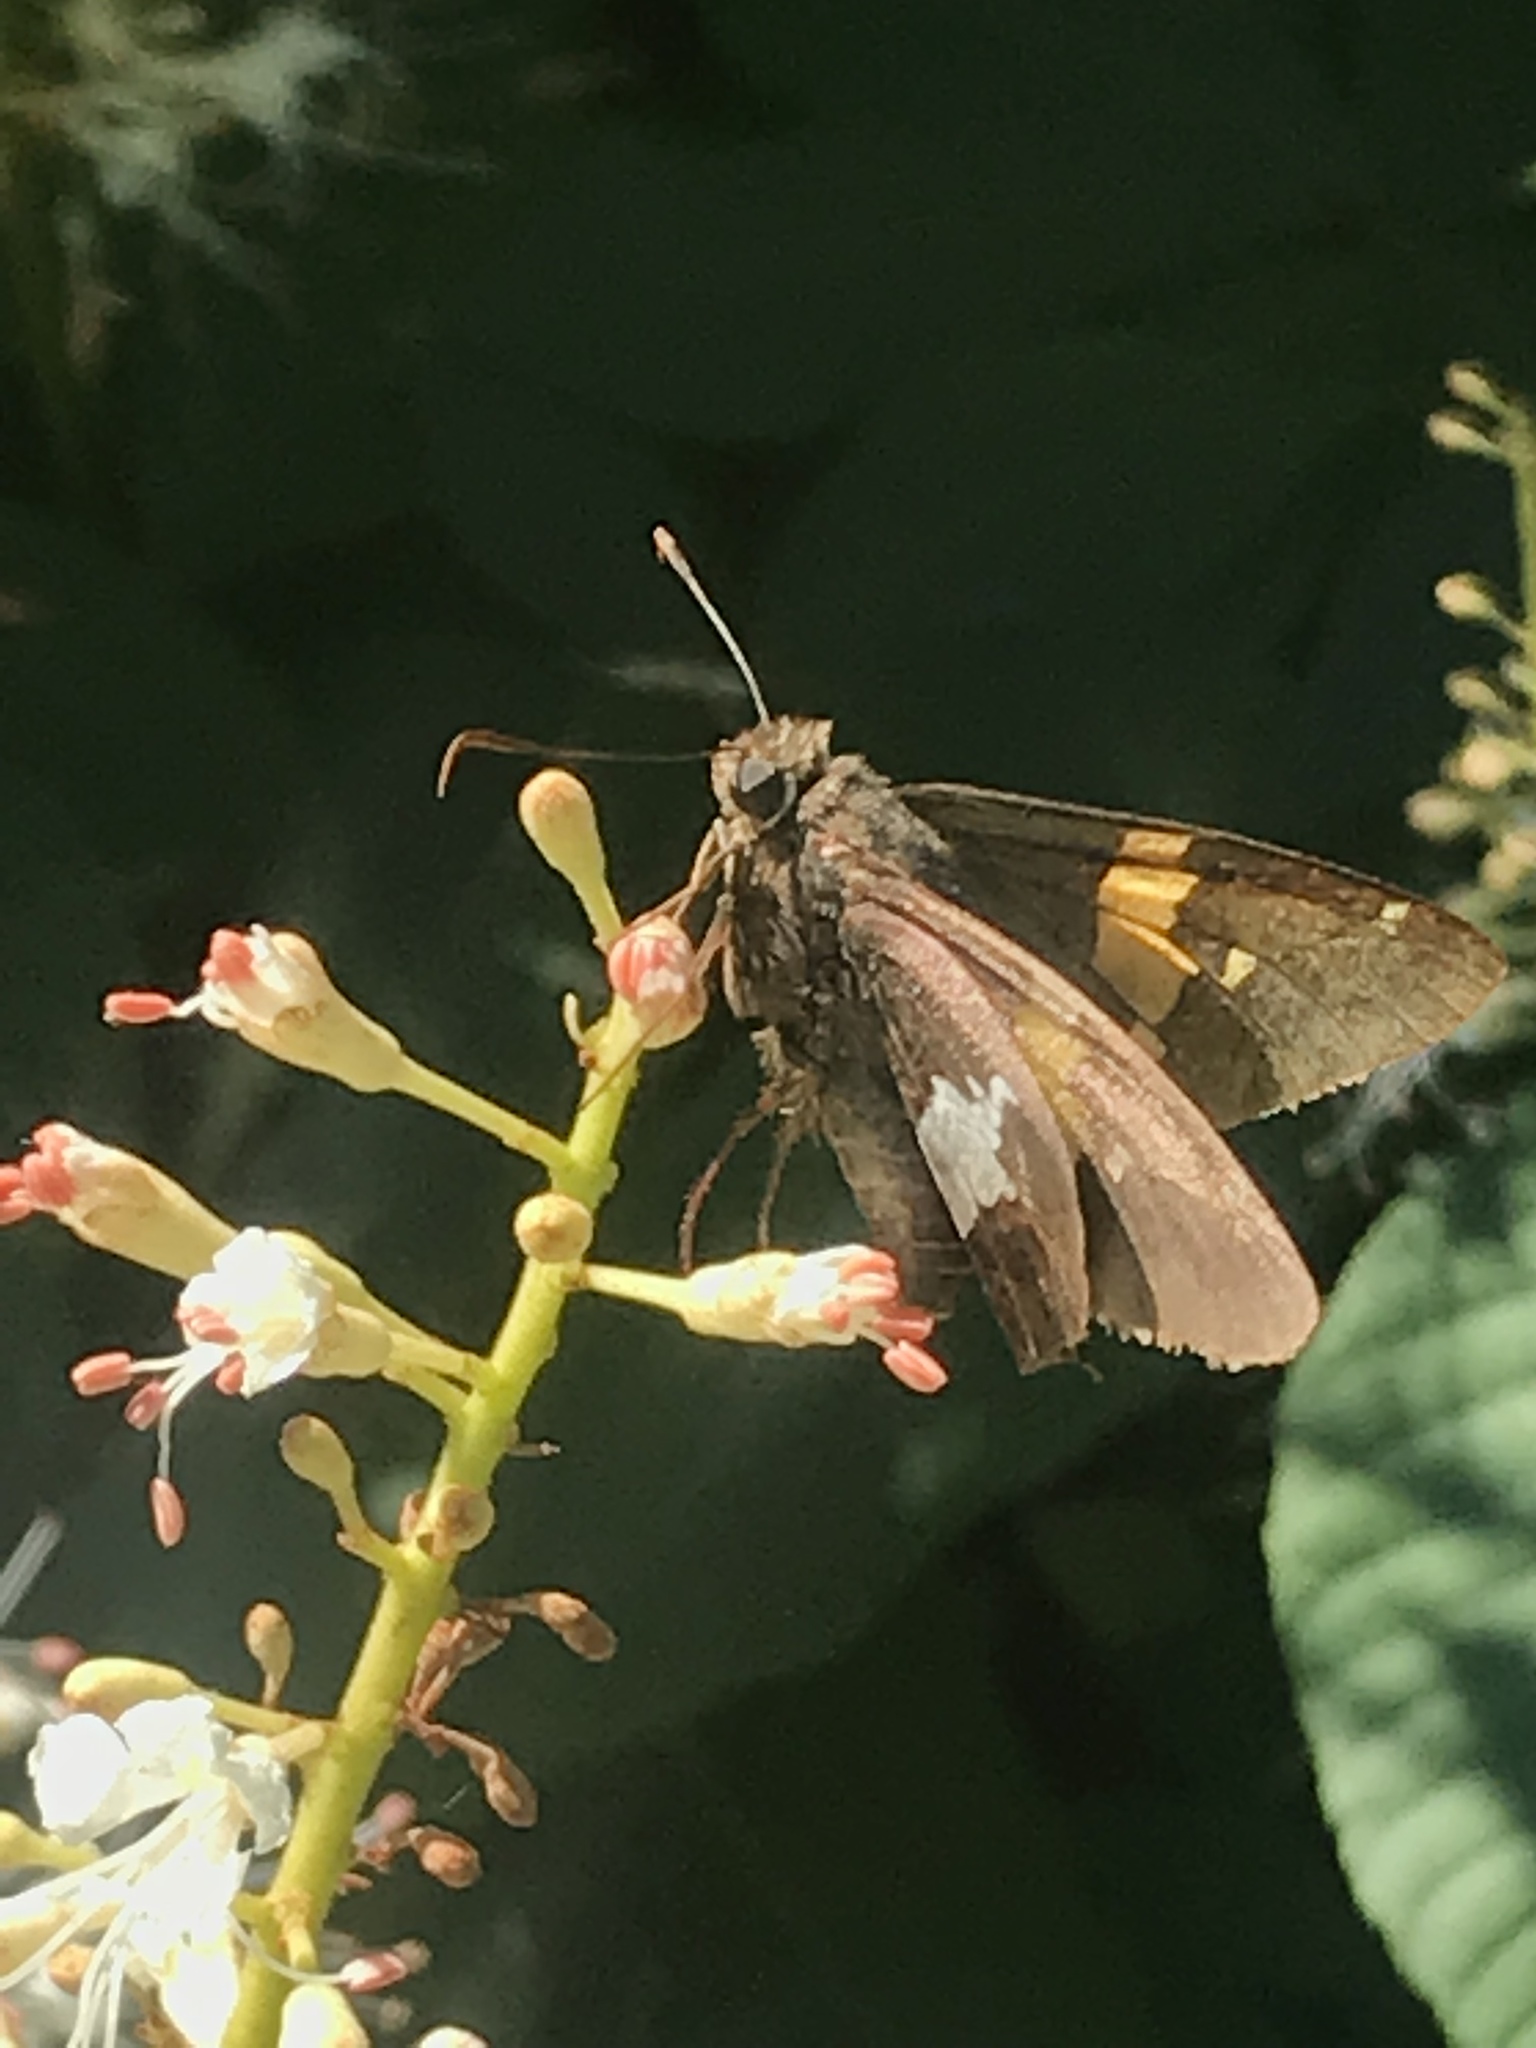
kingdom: Animalia
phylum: Arthropoda
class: Insecta
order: Lepidoptera
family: Hesperiidae
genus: Epargyreus
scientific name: Epargyreus clarus
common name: Silver-spotted skipper
